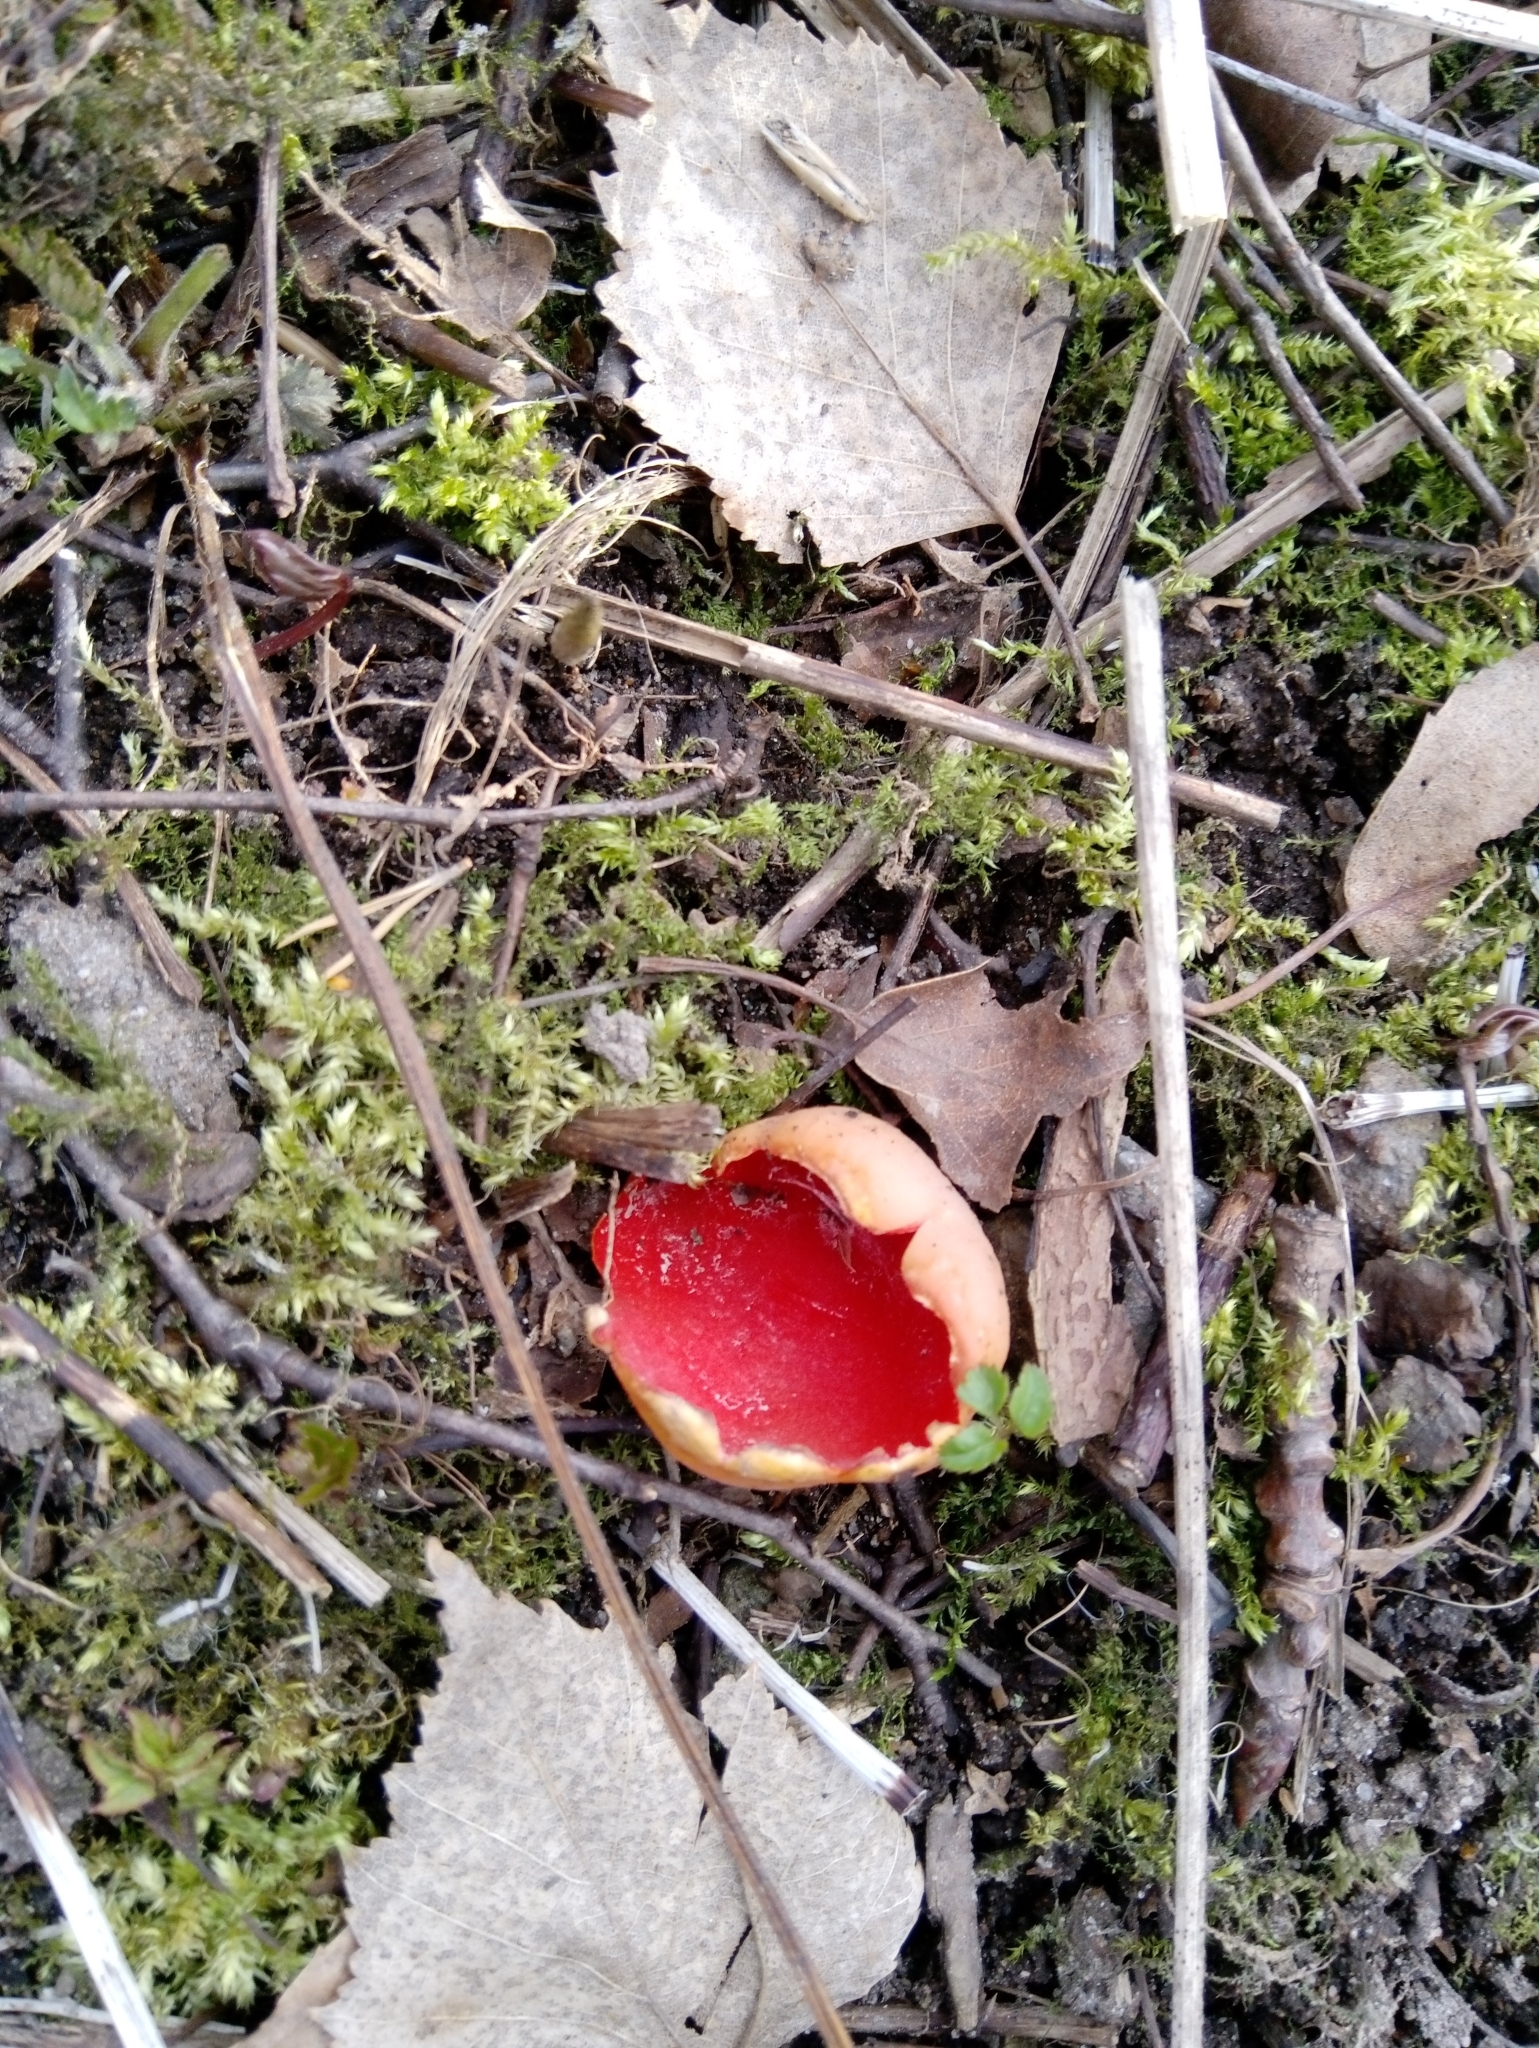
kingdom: Fungi
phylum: Ascomycota
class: Pezizomycetes
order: Pezizales
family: Sarcoscyphaceae
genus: Sarcoscypha
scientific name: Sarcoscypha austriaca
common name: Scarlet elfcup
